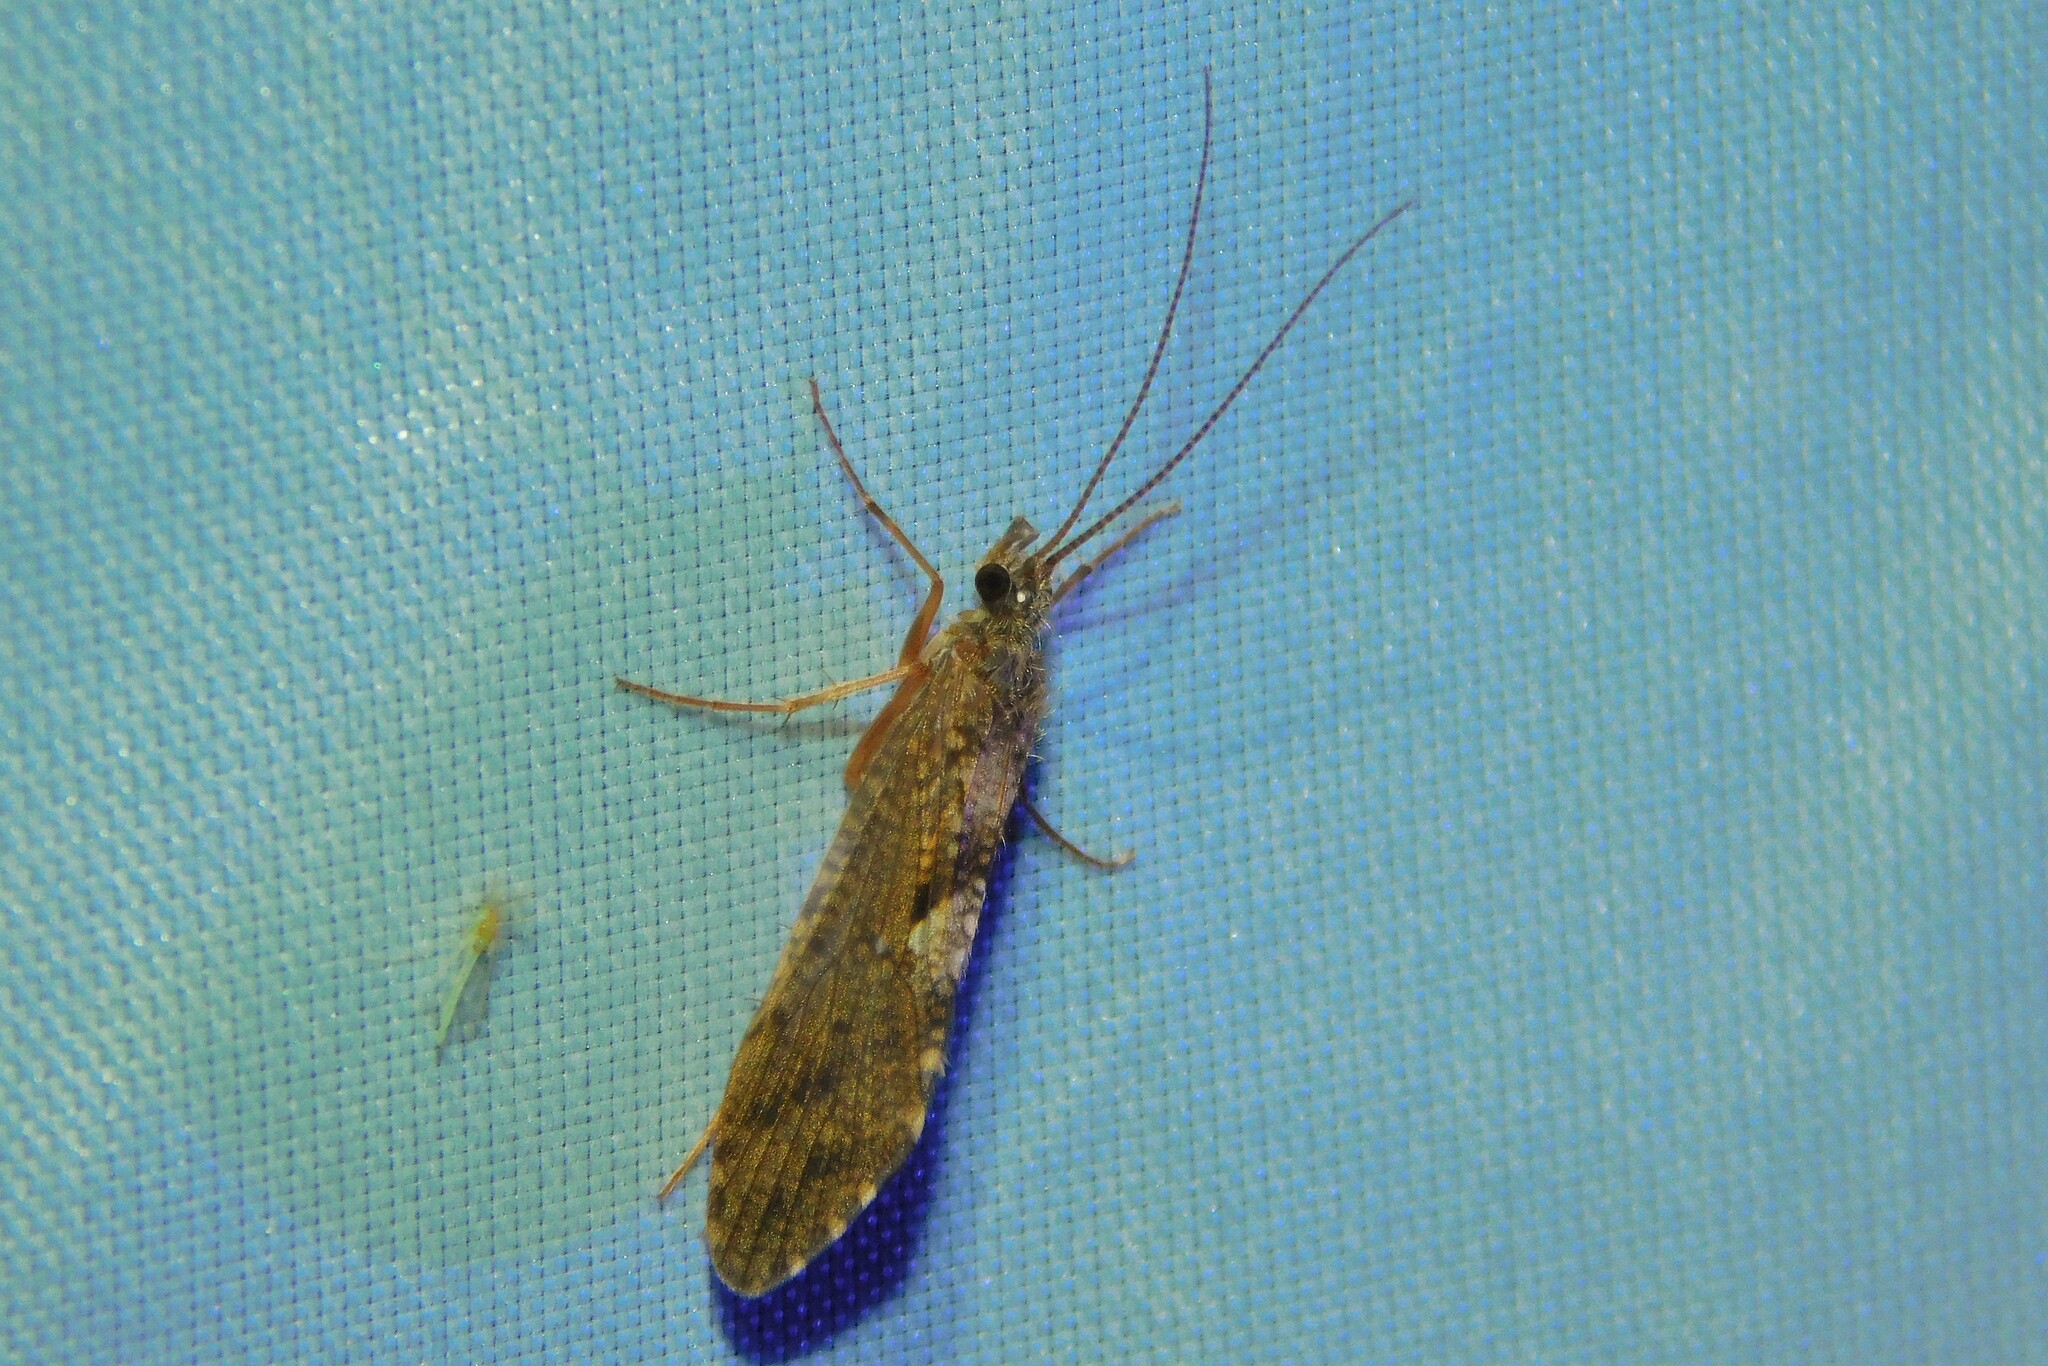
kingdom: Animalia
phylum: Arthropoda
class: Insecta
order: Trichoptera
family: Rhyacophilidae
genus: Rhyacophila
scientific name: Rhyacophila
